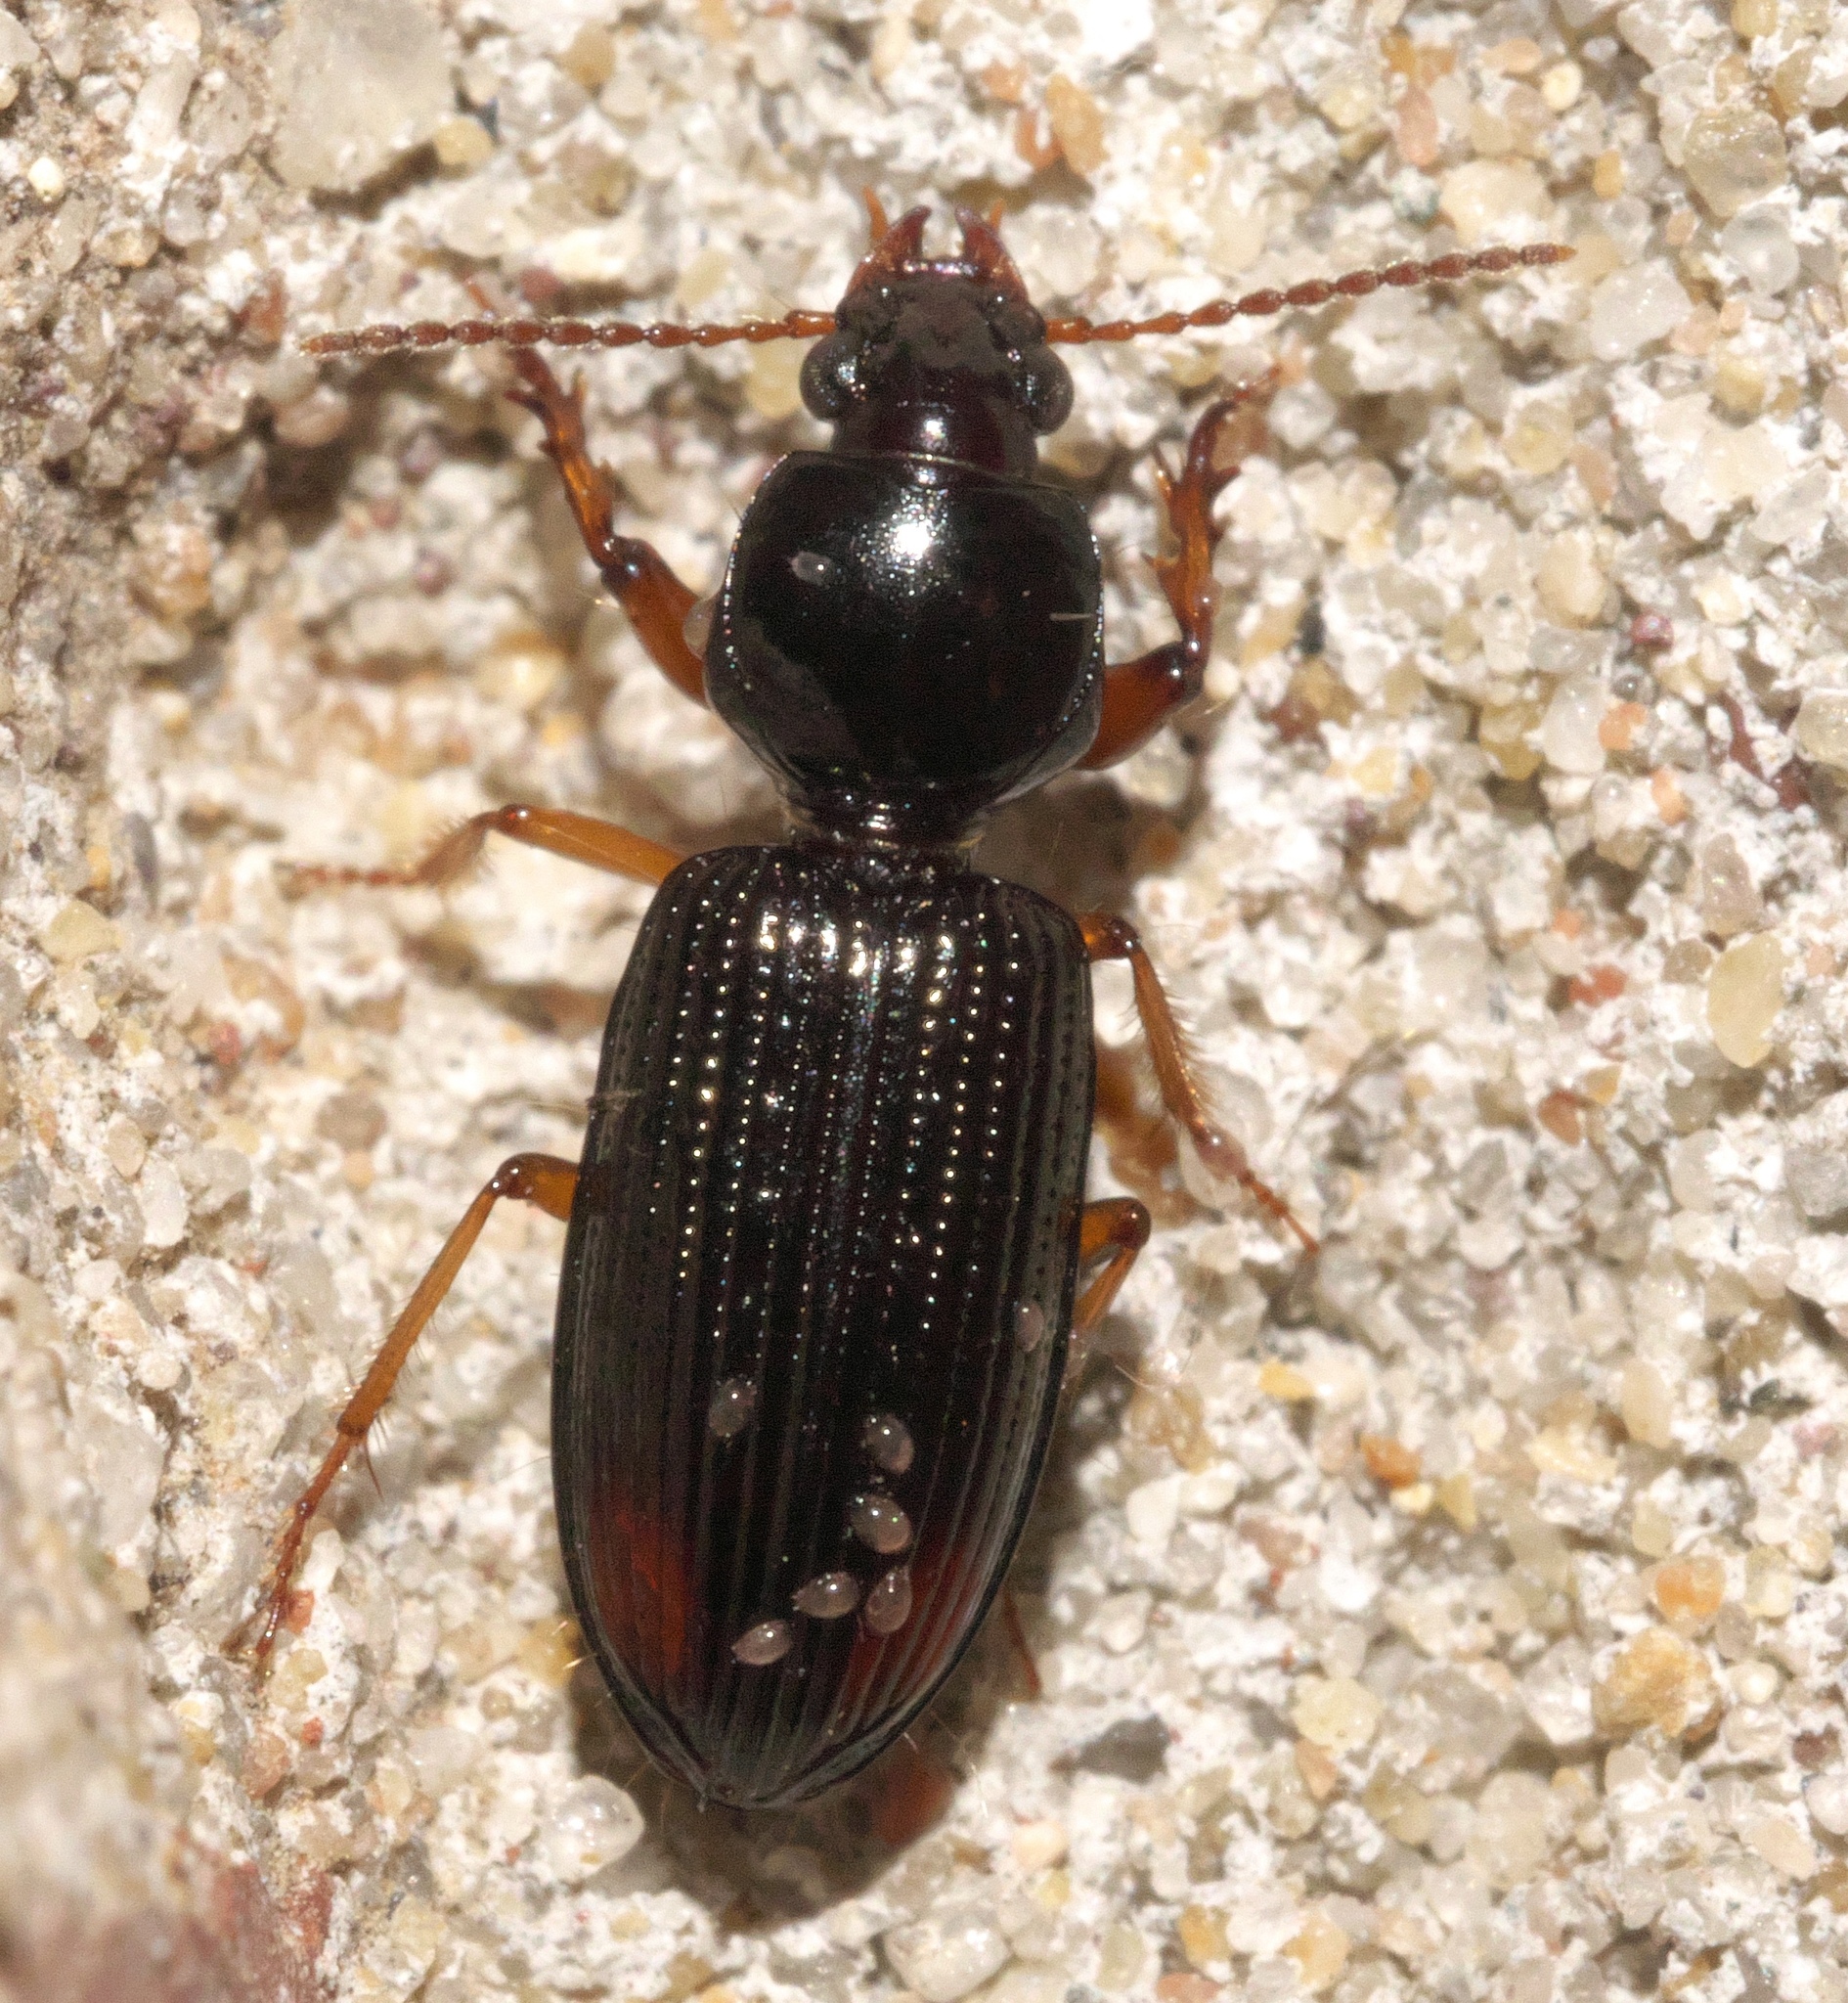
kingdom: Animalia
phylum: Arthropoda
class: Insecta
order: Coleoptera
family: Carabidae
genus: Aspidoglossa
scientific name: Aspidoglossa subangulata
